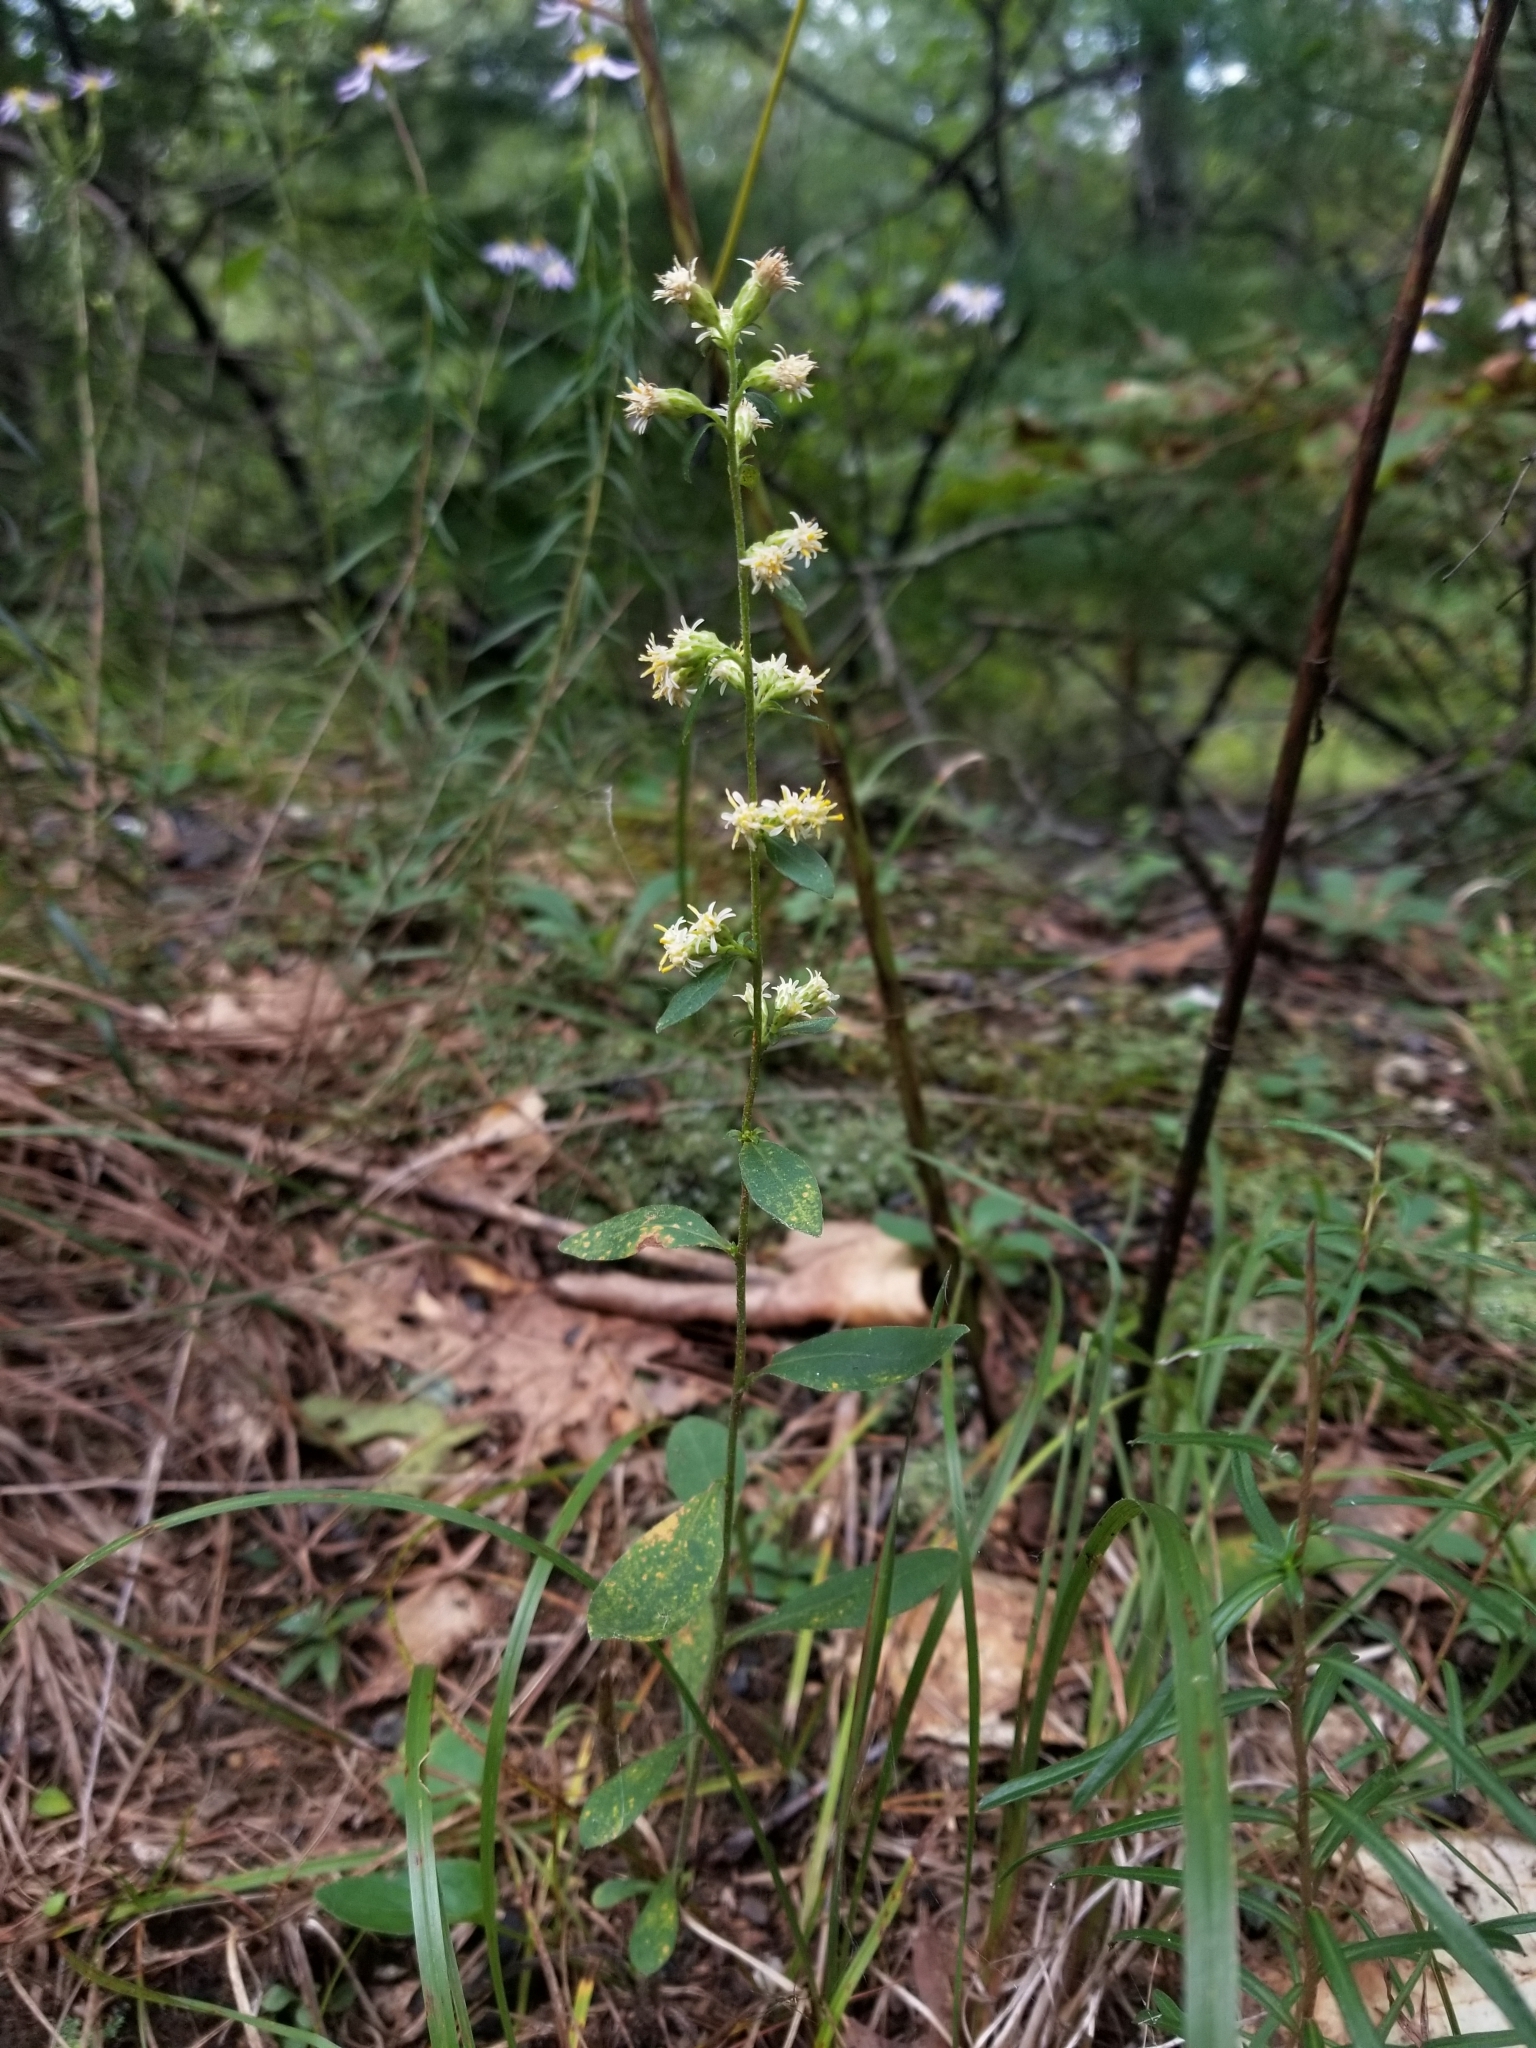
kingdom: Plantae
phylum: Tracheophyta
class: Magnoliopsida
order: Asterales
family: Asteraceae
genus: Solidago
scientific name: Solidago bicolor
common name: Silverrod
